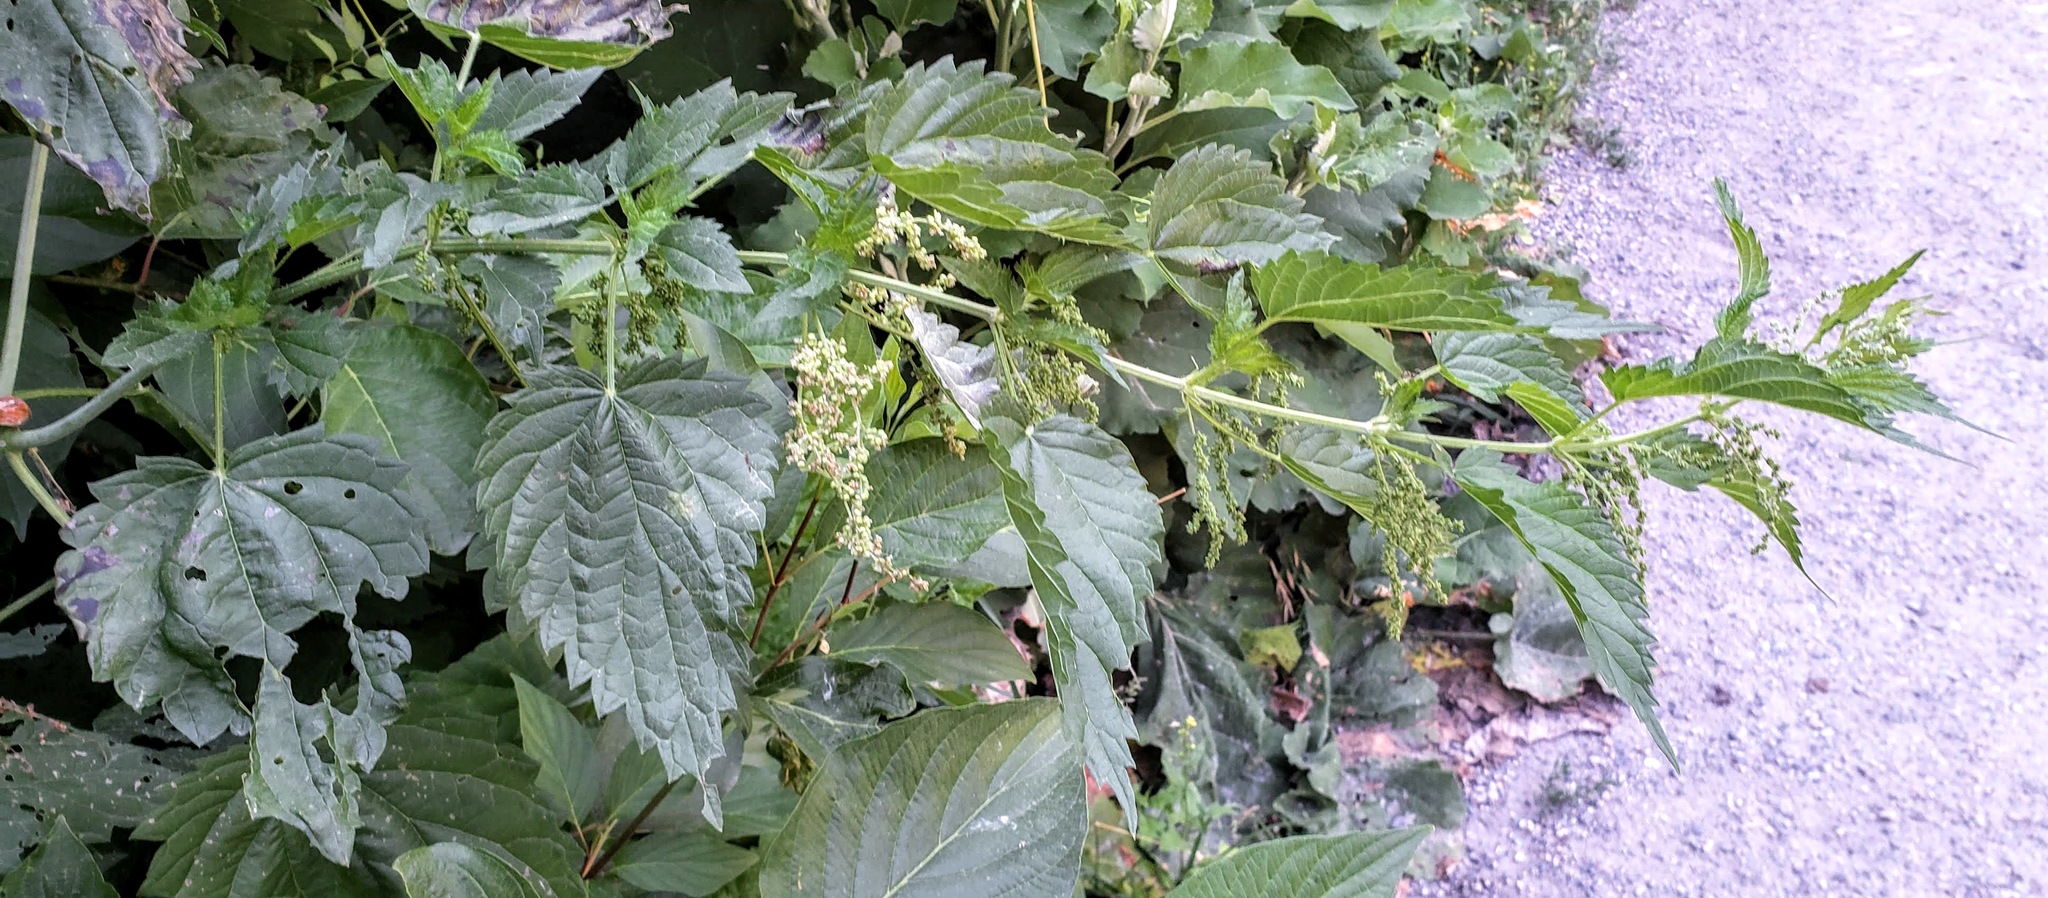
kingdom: Plantae
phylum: Tracheophyta
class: Magnoliopsida
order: Rosales
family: Urticaceae
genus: Urtica
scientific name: Urtica dioica
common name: Common nettle
